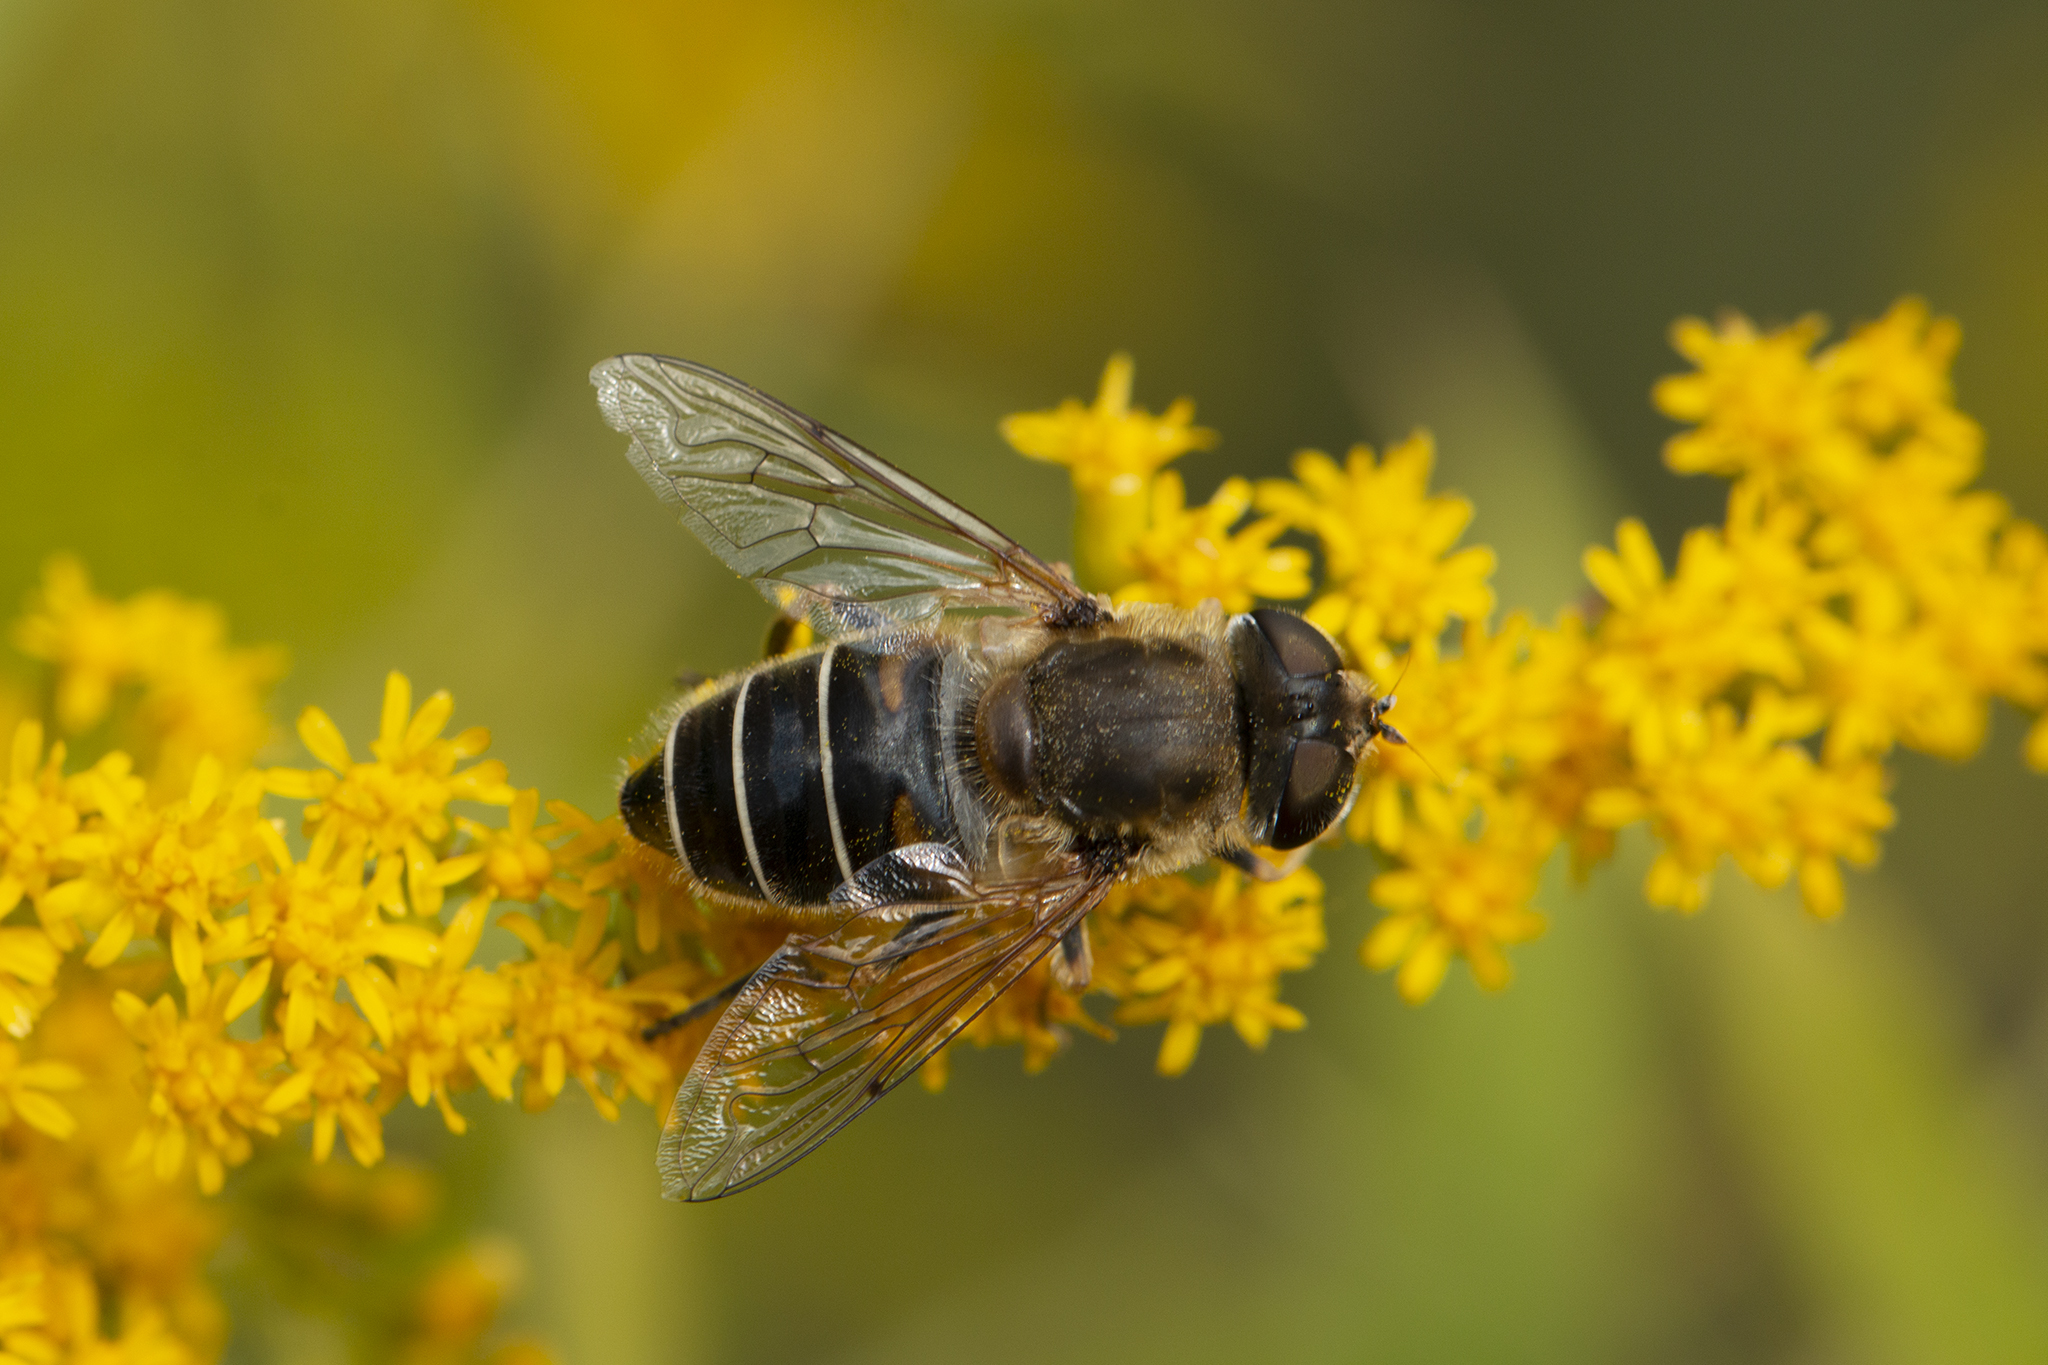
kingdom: Animalia
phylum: Arthropoda
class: Insecta
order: Diptera
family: Syrphidae
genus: Eristalis
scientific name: Eristalis nemorum
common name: Orange-spined drone fly
